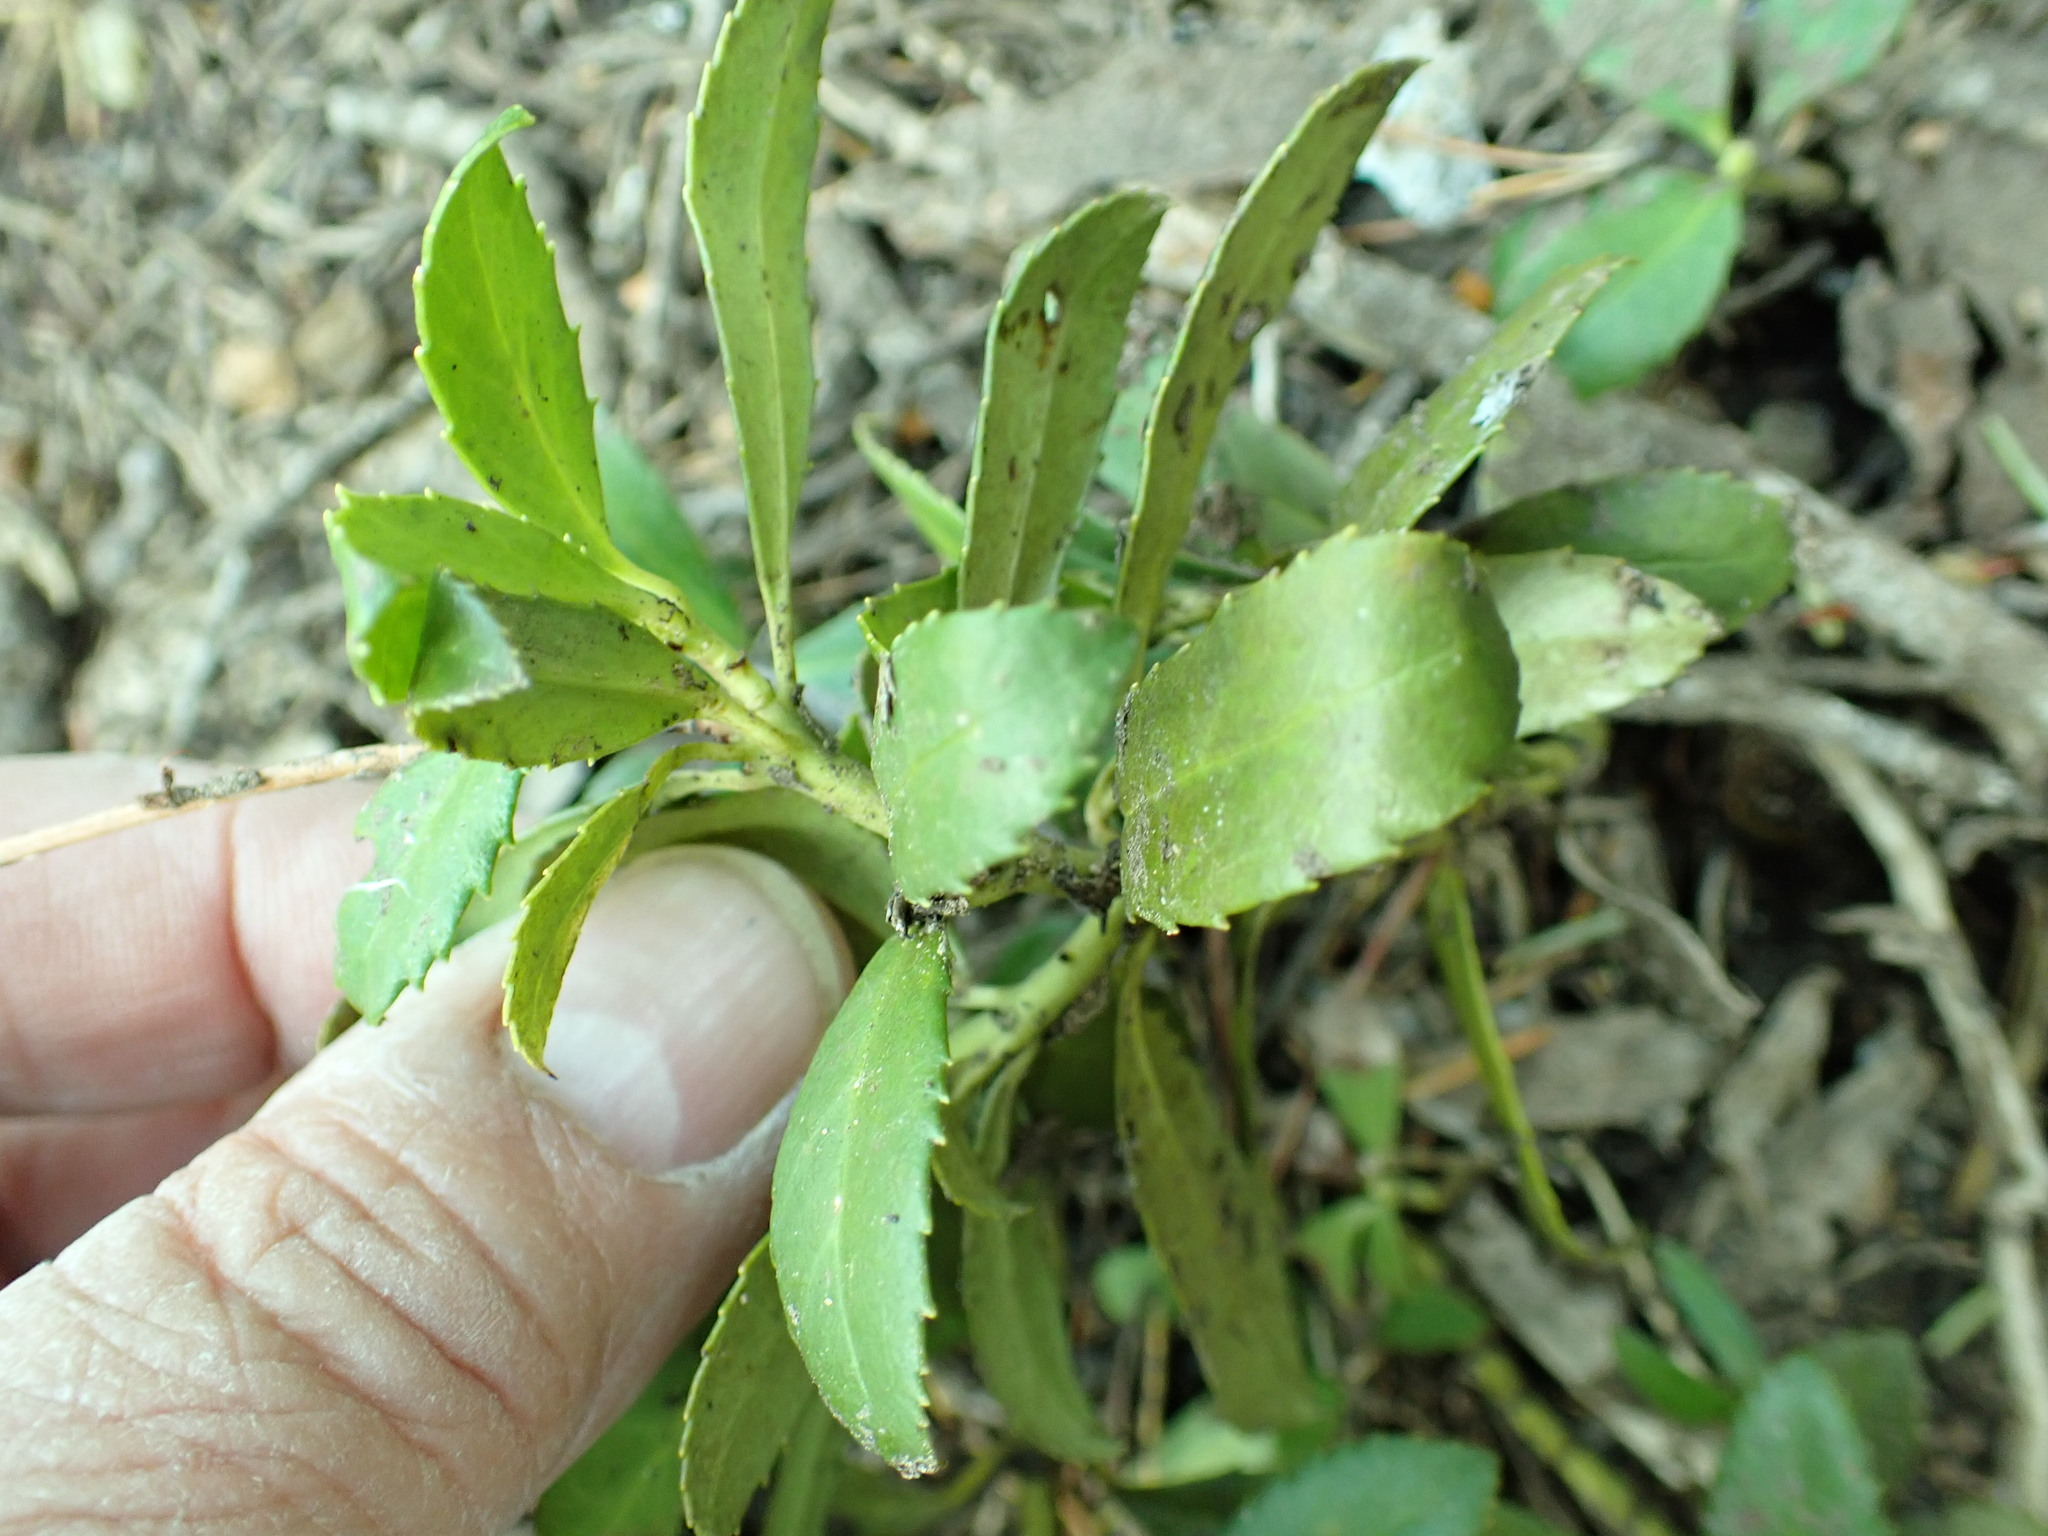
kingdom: Plantae
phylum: Tracheophyta
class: Magnoliopsida
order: Ericales
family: Ericaceae
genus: Chimaphila
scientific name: Chimaphila umbellata
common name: Pipsissewa
